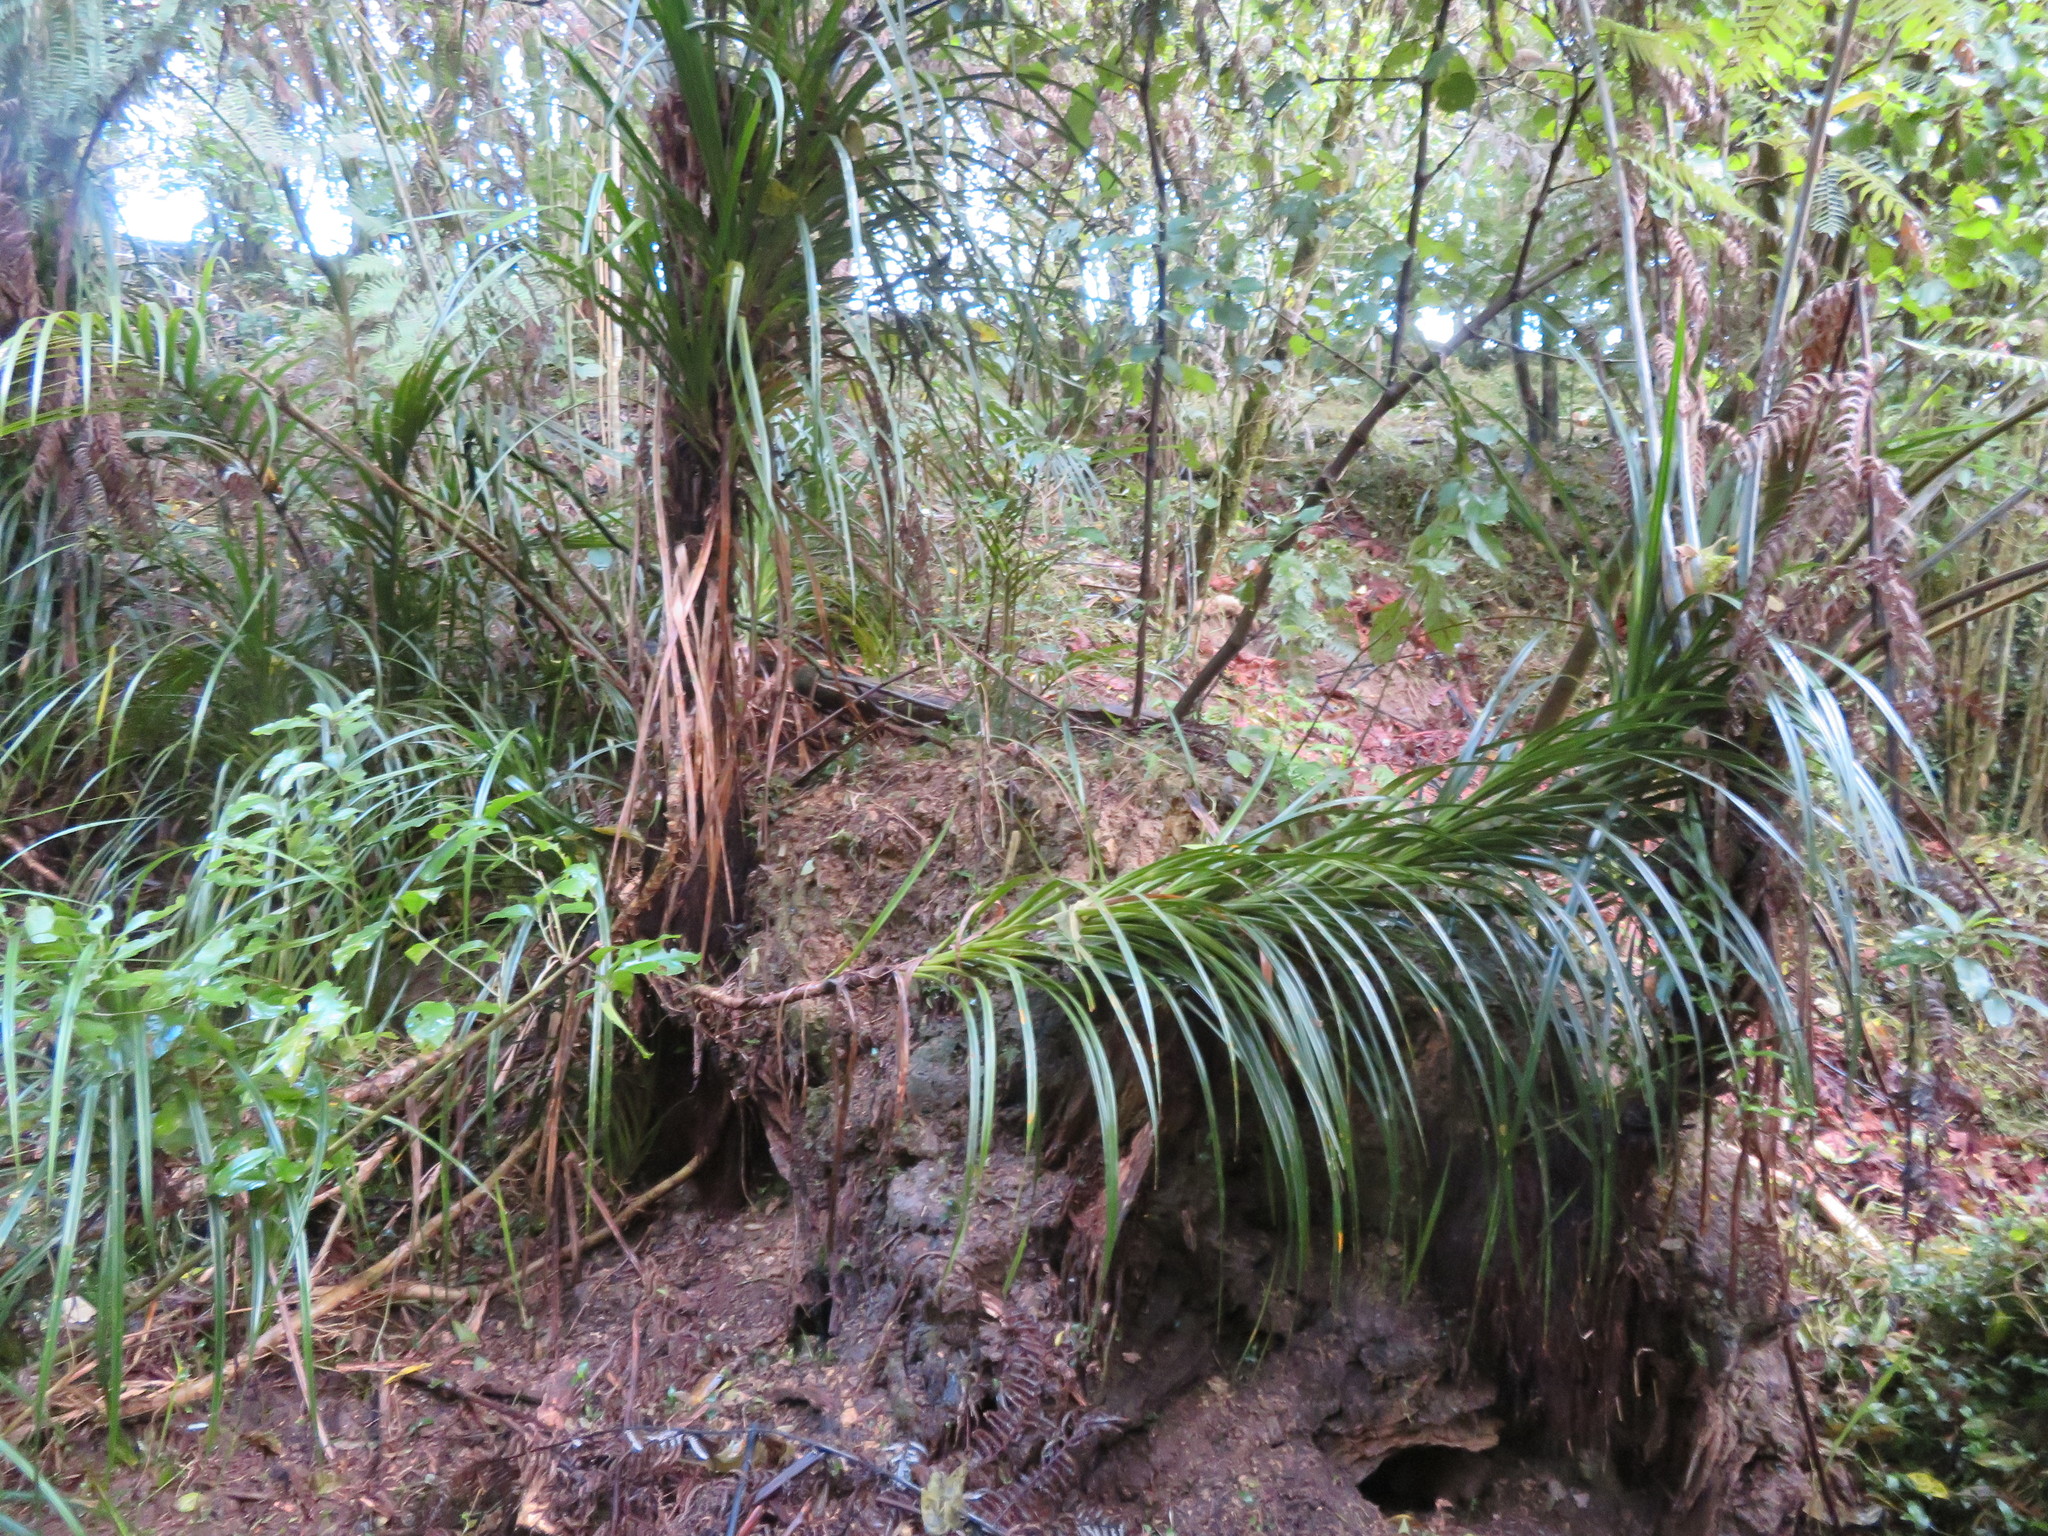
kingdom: Plantae
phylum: Tracheophyta
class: Liliopsida
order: Pandanales
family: Pandanaceae
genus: Freycinetia
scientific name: Freycinetia banksii
